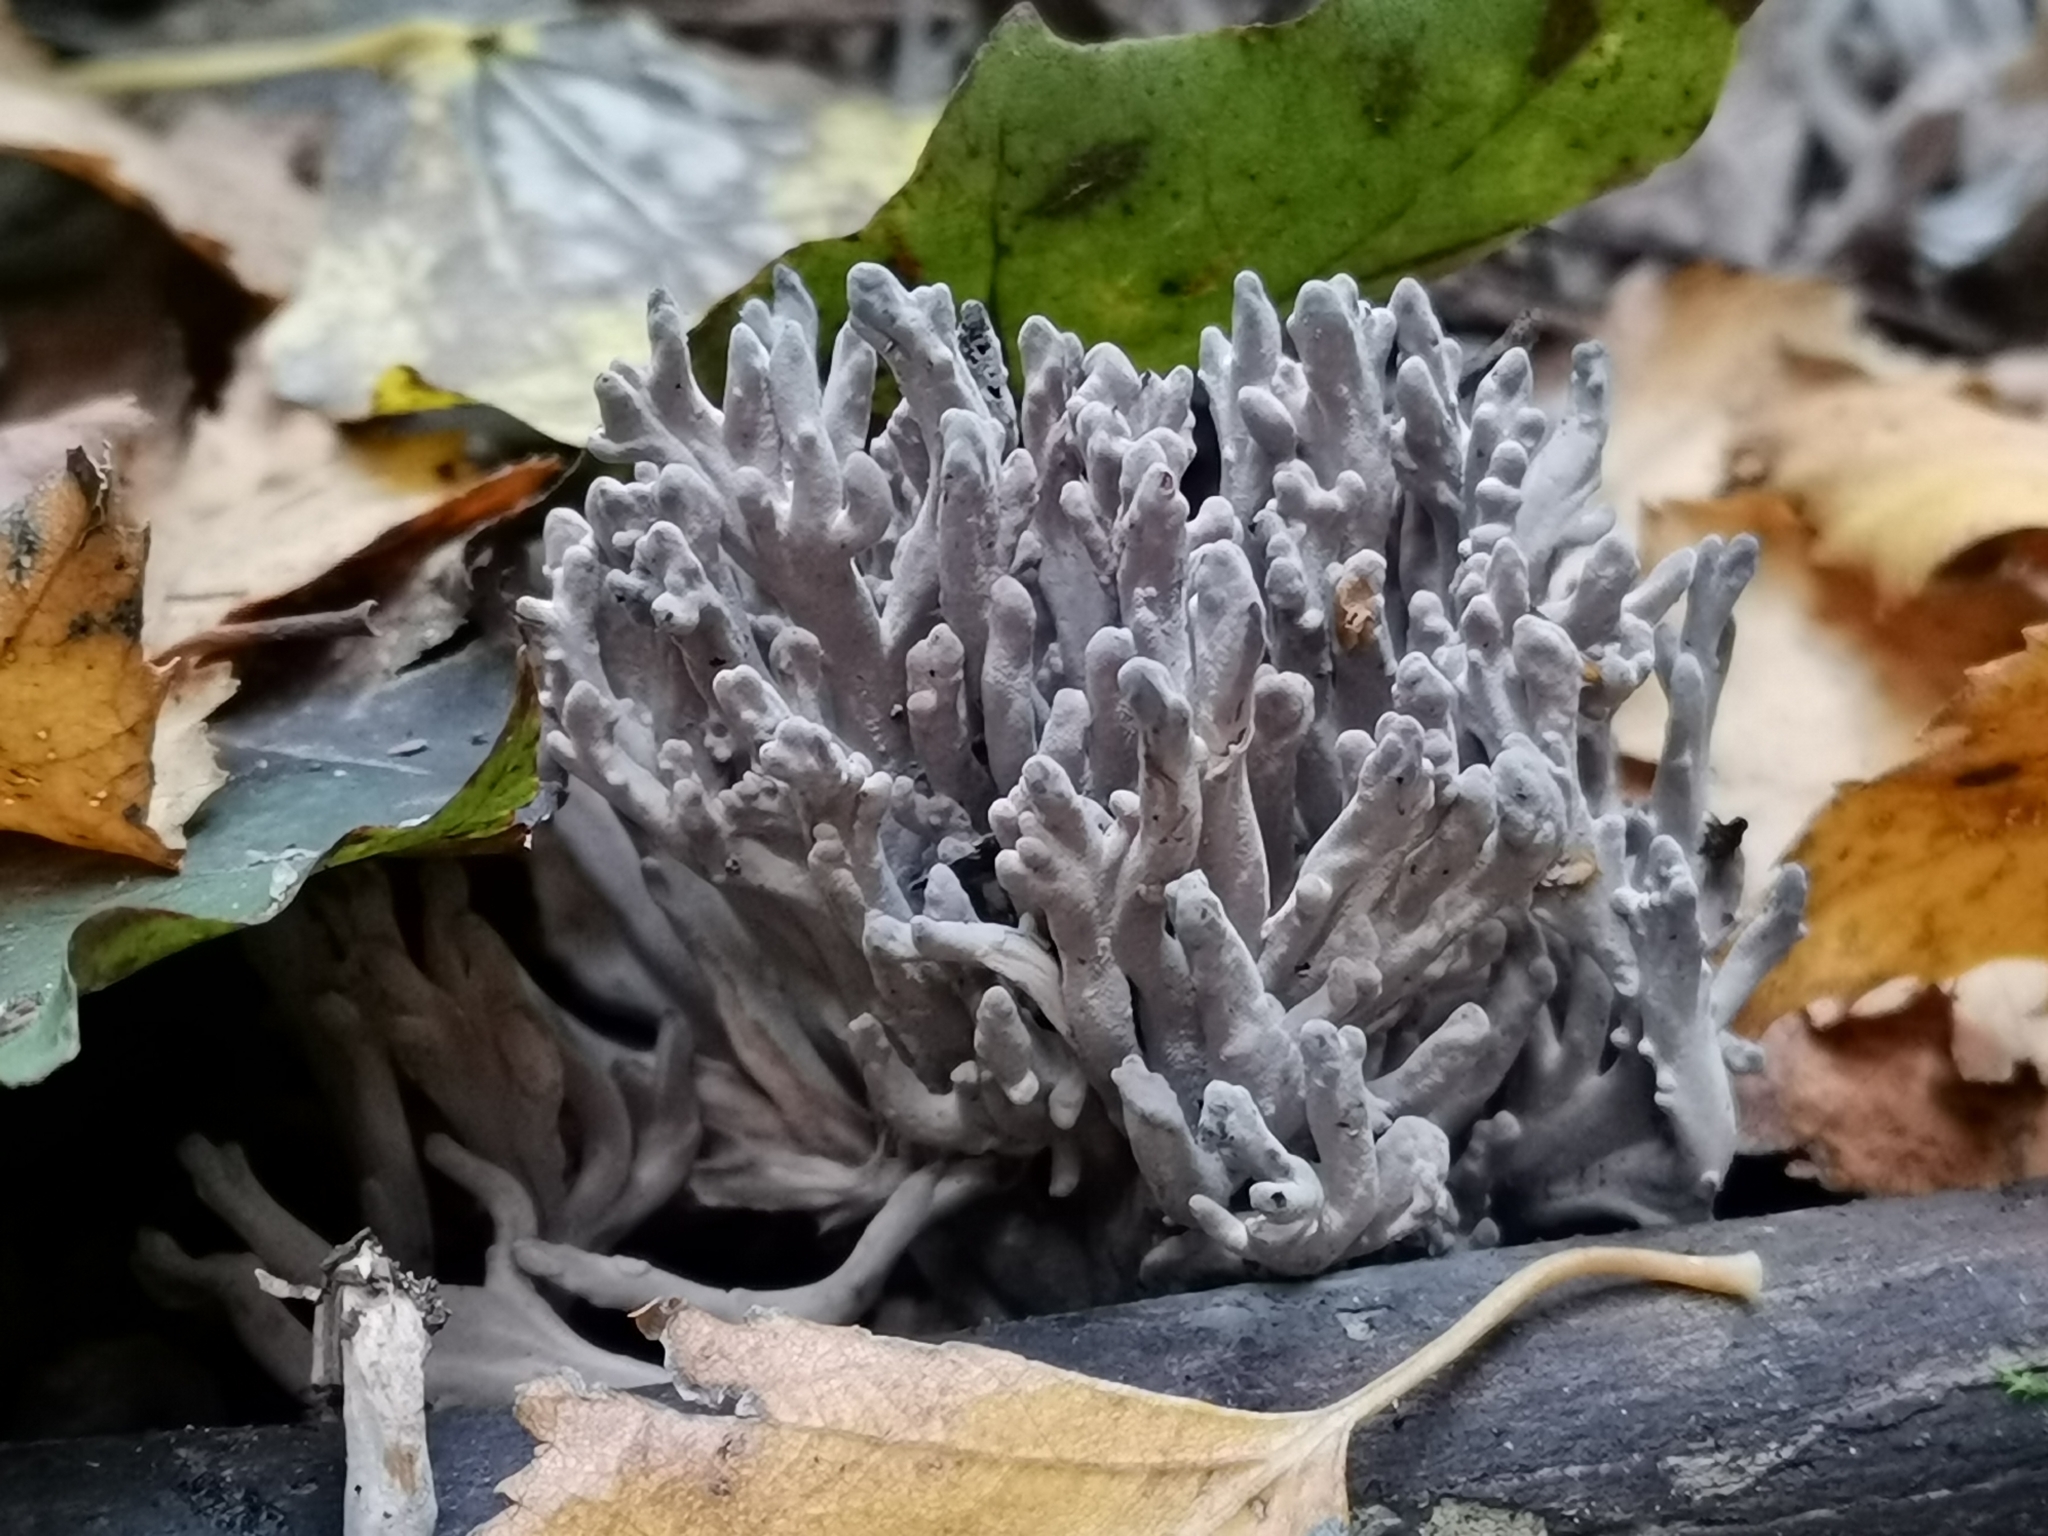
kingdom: Fungi
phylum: Basidiomycota
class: Agaricomycetes
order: Cantharellales
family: Hydnaceae
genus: Clavulina
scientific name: Clavulina cinerea
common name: Grey coral
